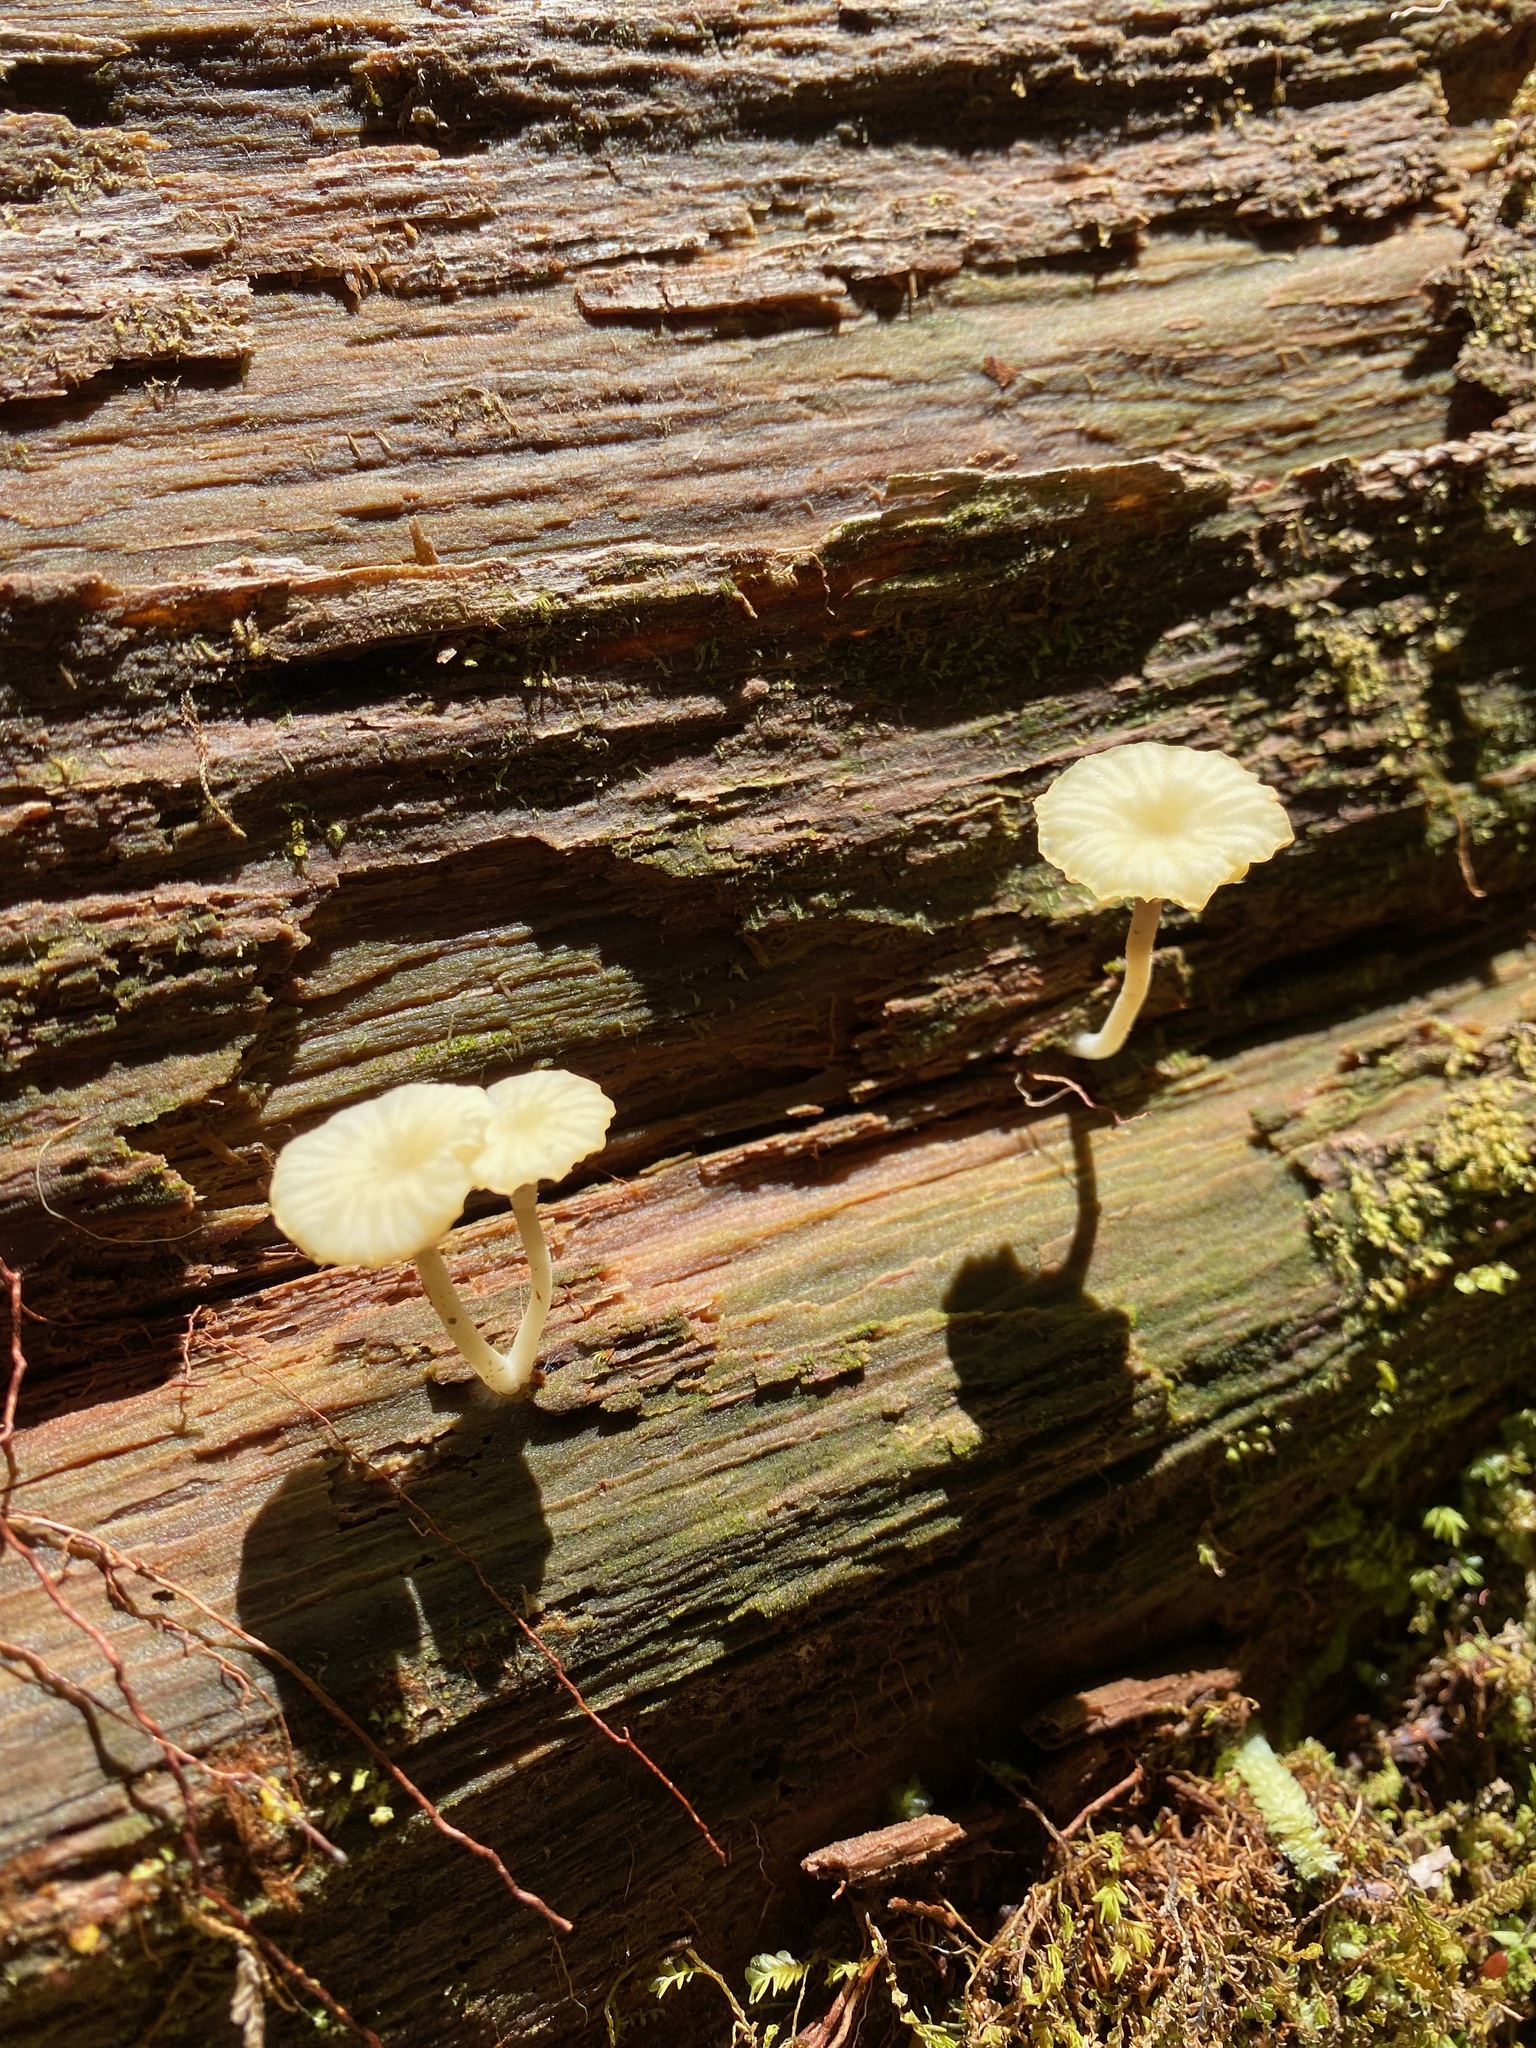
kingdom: Fungi
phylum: Basidiomycota
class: Agaricomycetes
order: Agaricales
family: Hygrophoraceae
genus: Lichenomphalia
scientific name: Lichenomphalia
